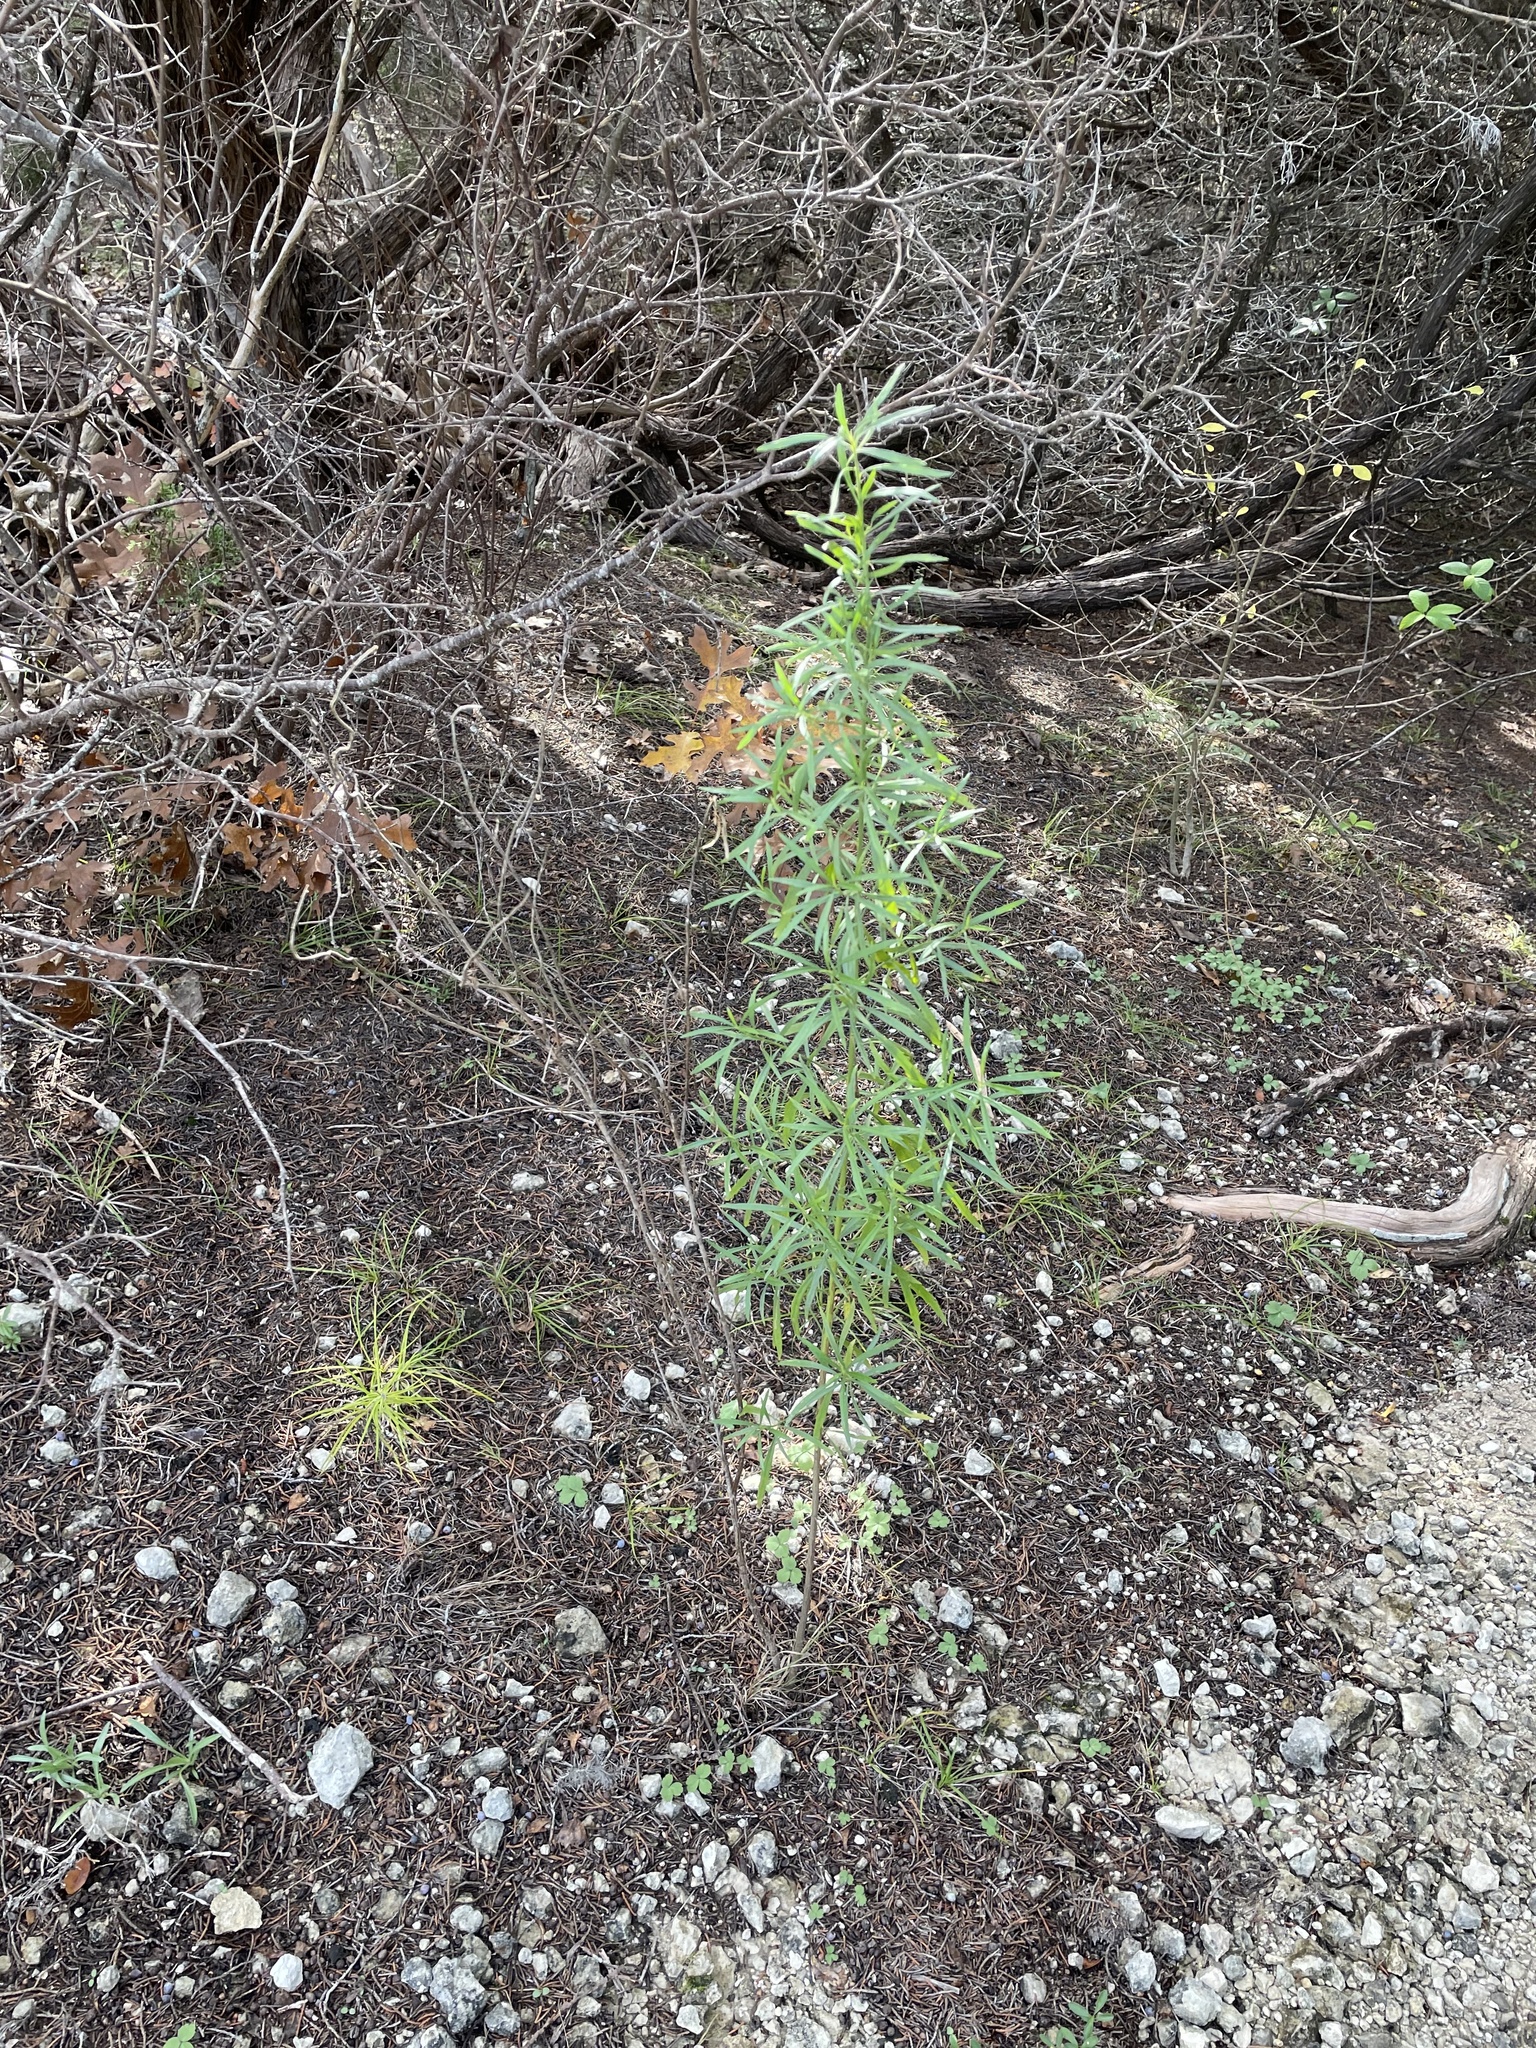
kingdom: Plantae
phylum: Tracheophyta
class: Magnoliopsida
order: Asterales
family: Asteraceae
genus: Baccharis
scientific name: Baccharis neglecta
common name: Roosevelt-weed
